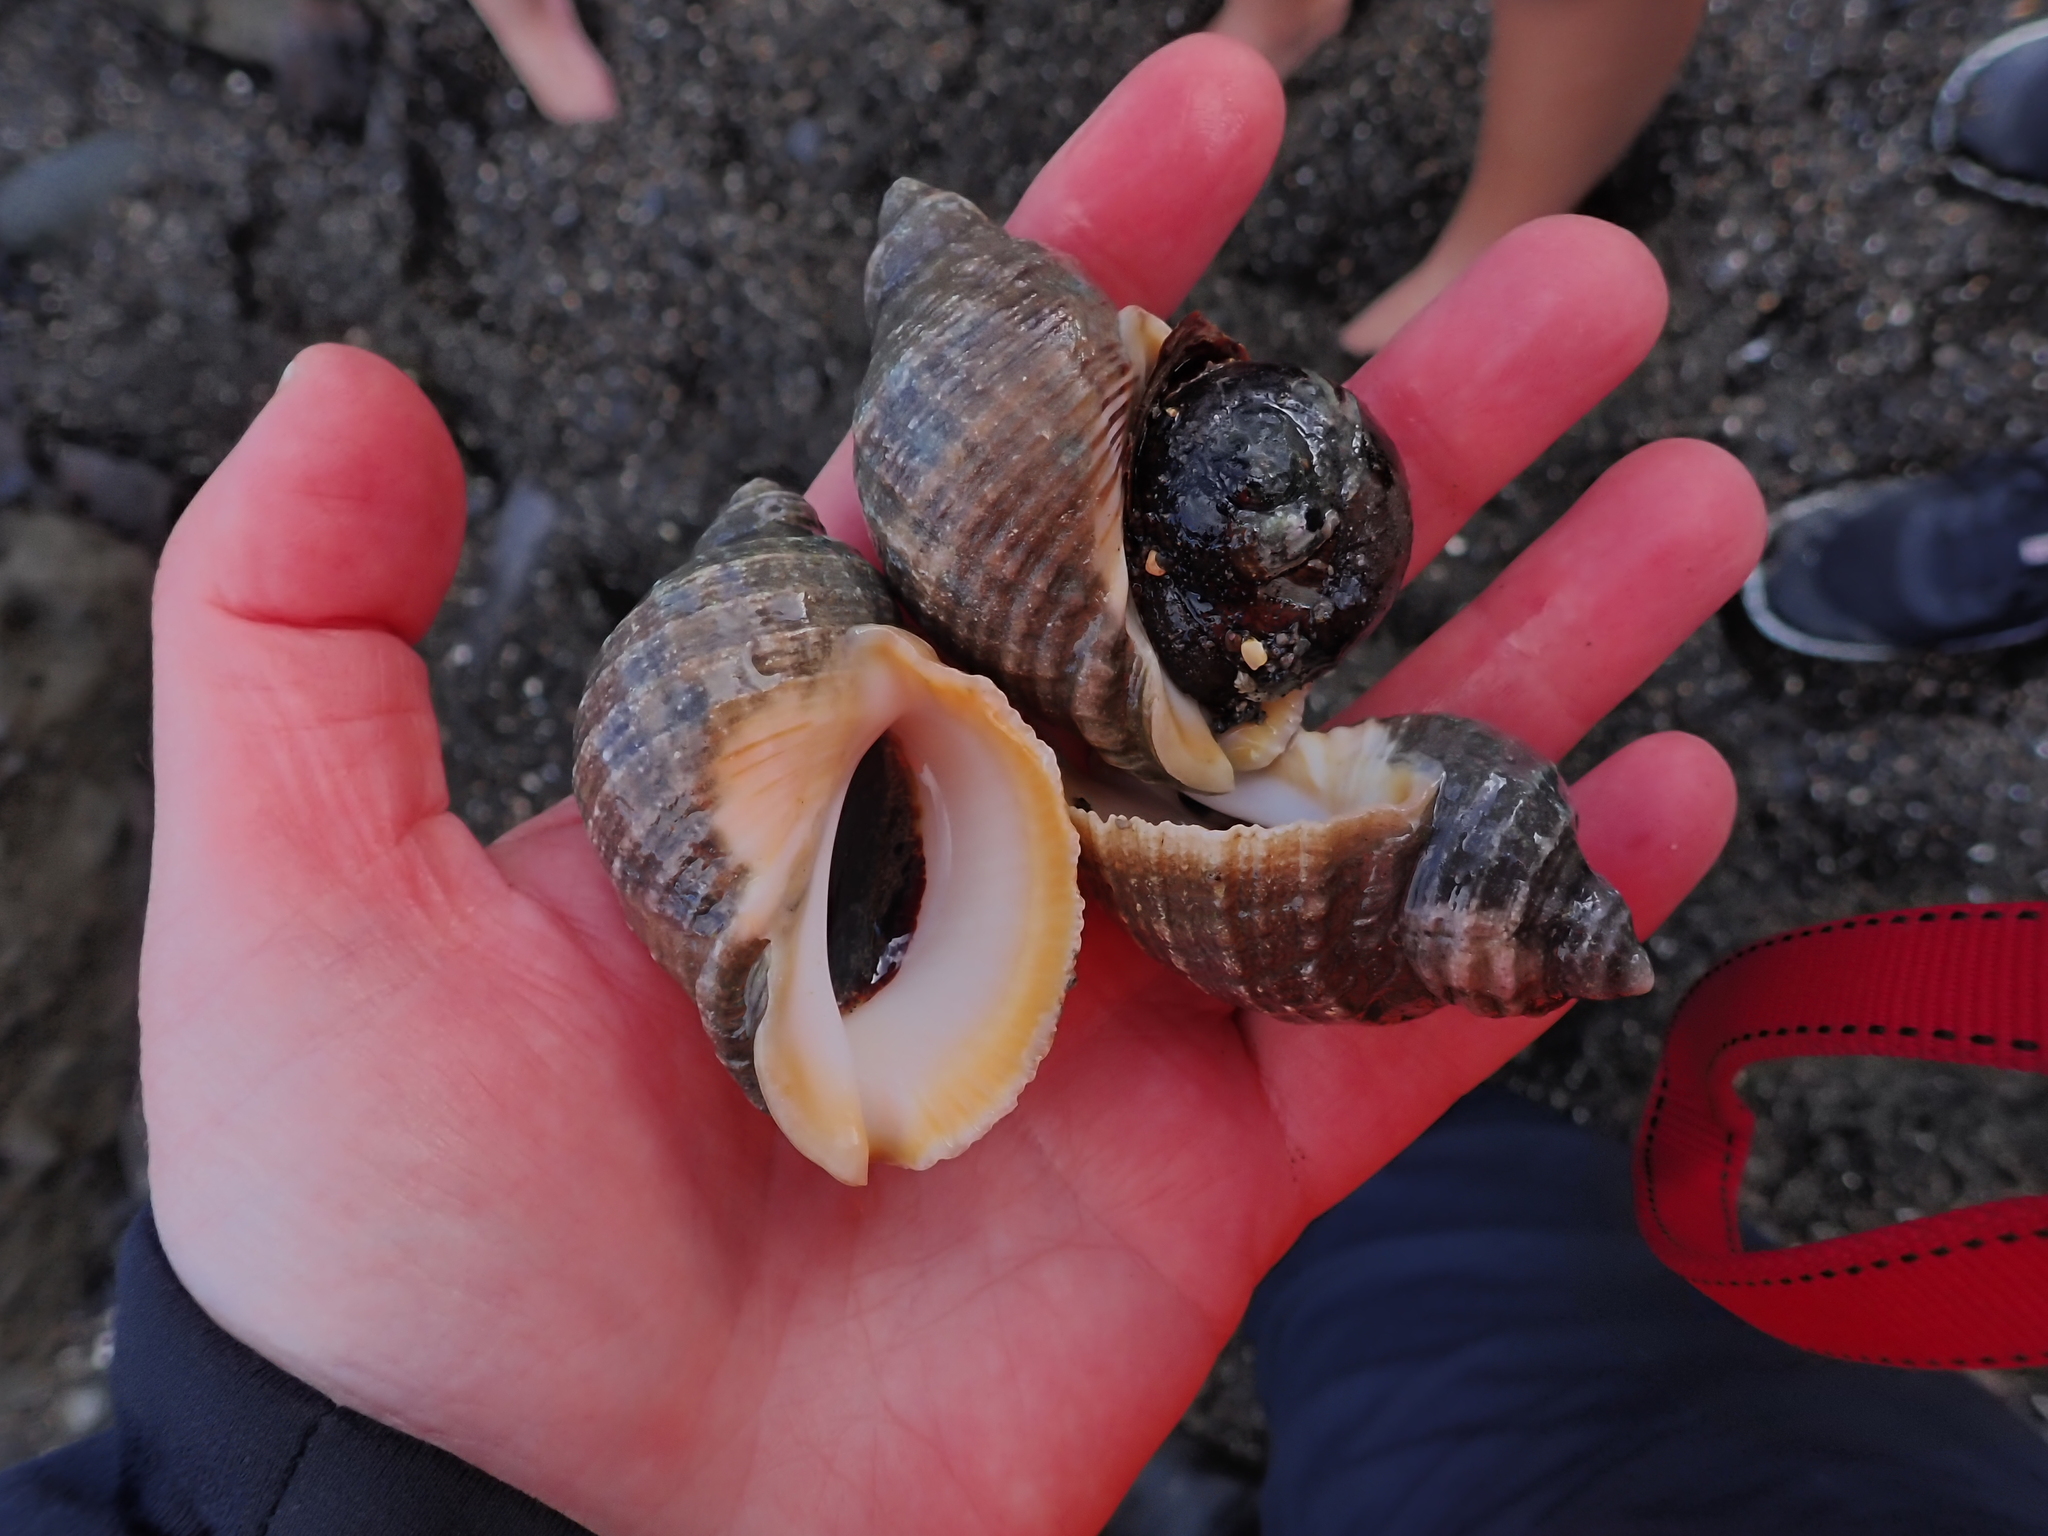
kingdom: Animalia
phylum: Mollusca
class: Gastropoda
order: Neogastropoda
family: Muricidae
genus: Dicathais
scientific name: Dicathais orbita
